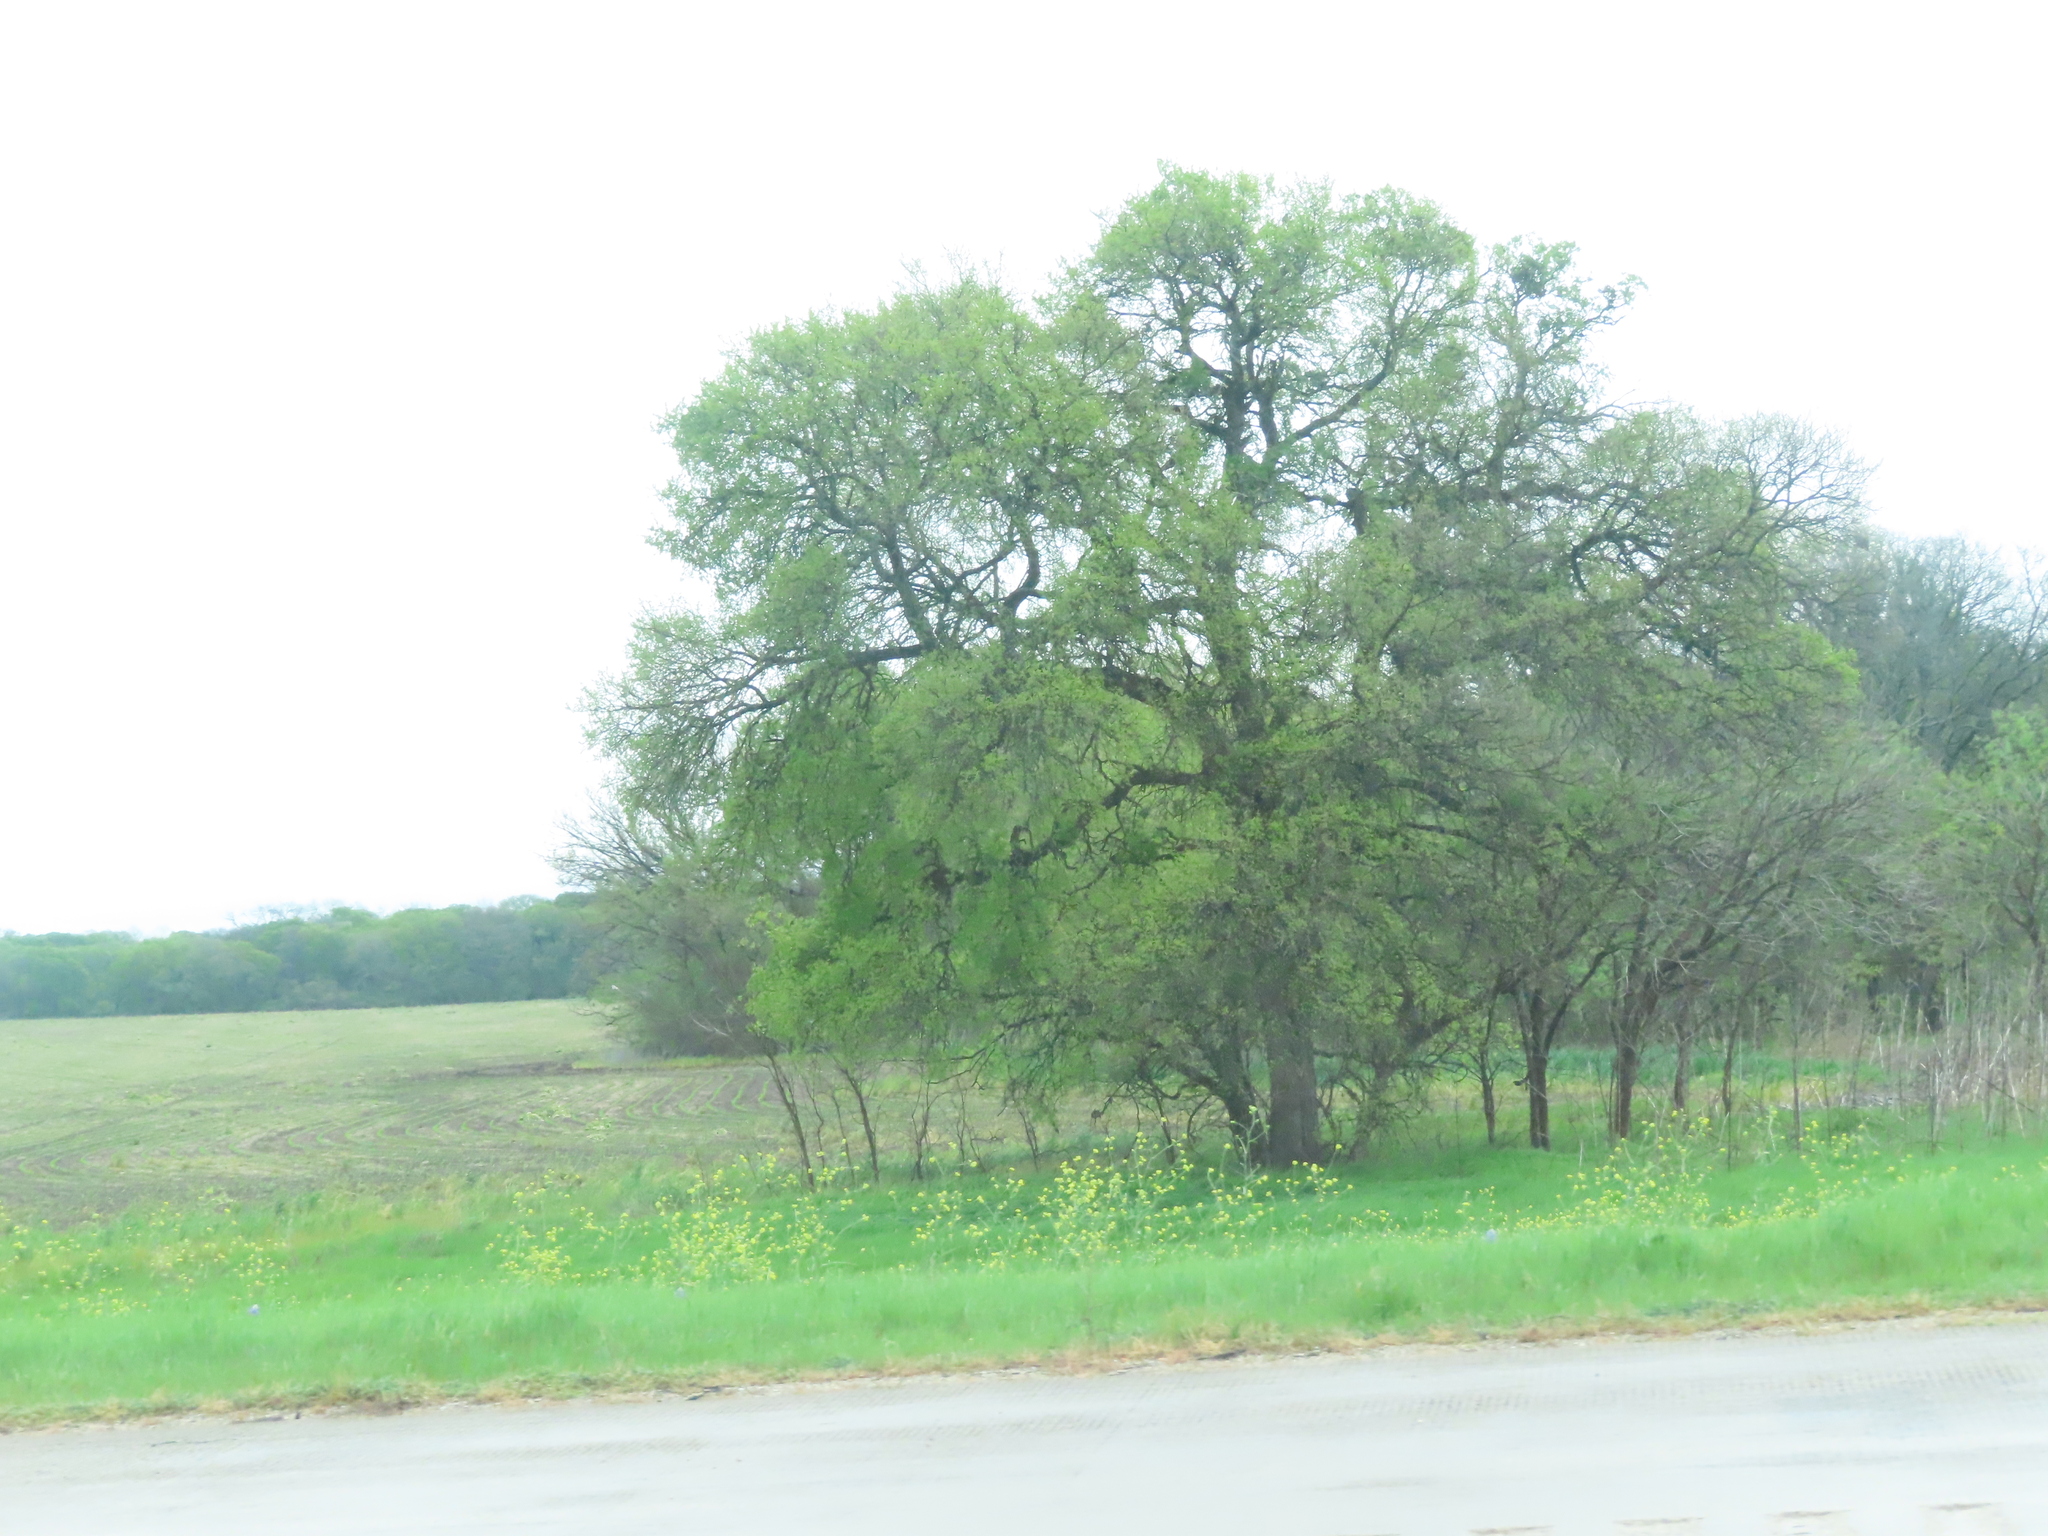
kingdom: Plantae
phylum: Tracheophyta
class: Magnoliopsida
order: Fabales
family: Fabaceae
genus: Prosopis
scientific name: Prosopis glandulosa
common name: Honey mesquite
